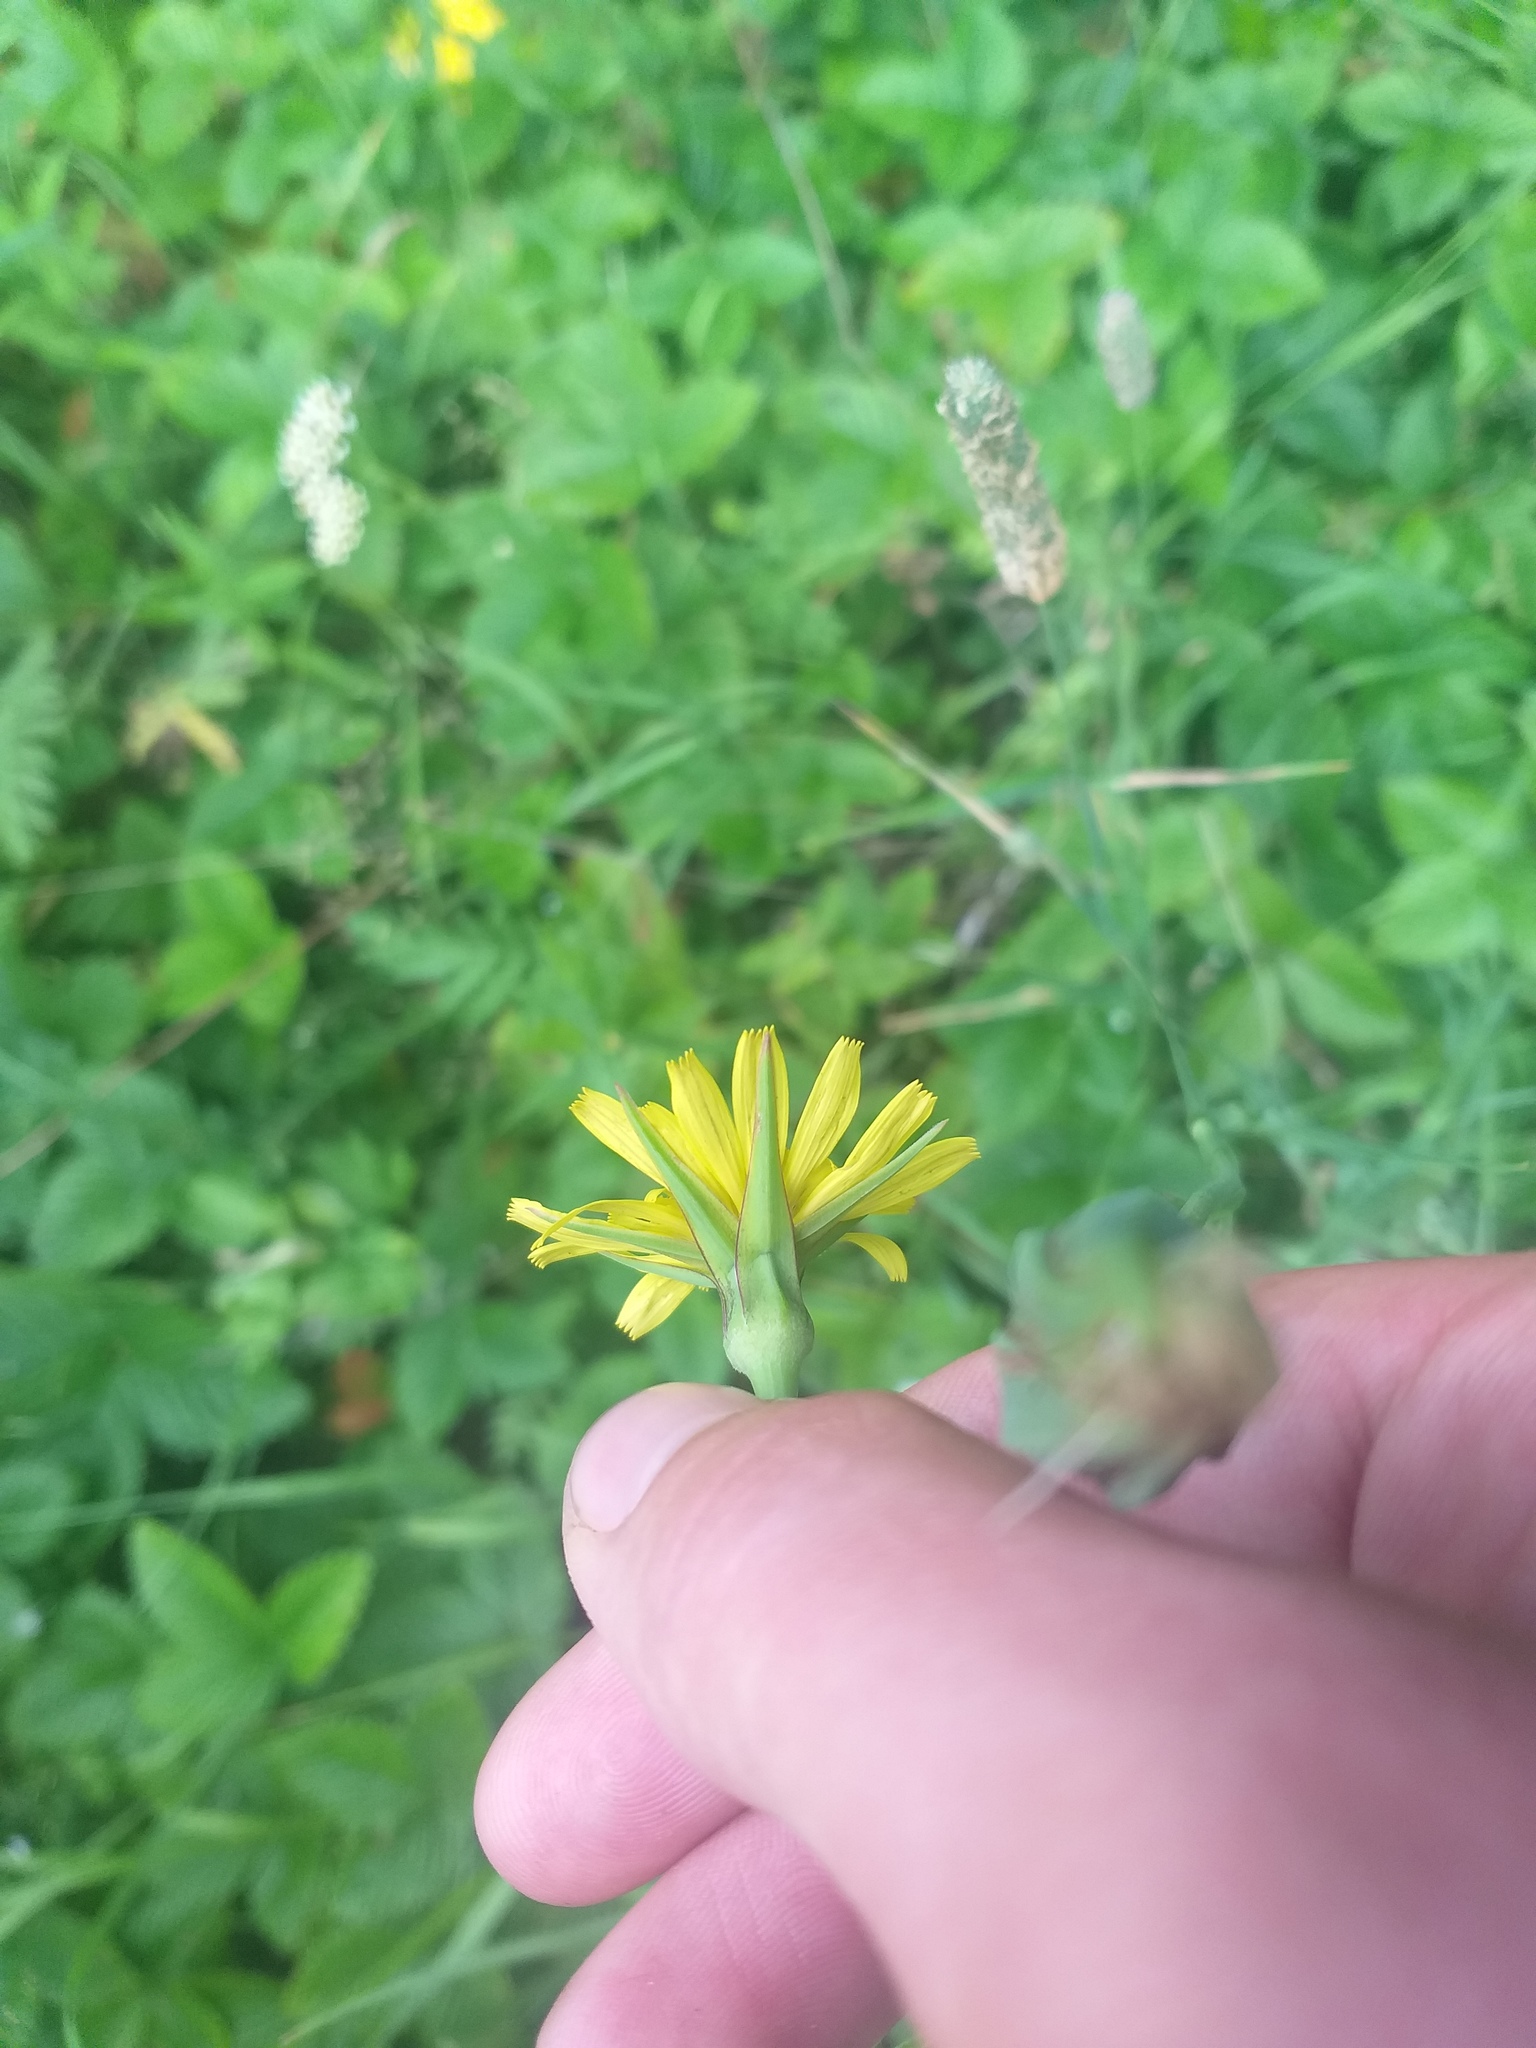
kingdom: Plantae
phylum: Tracheophyta
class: Magnoliopsida
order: Asterales
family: Asteraceae
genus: Tragopogon
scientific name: Tragopogon pratensis
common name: Goat's-beard
